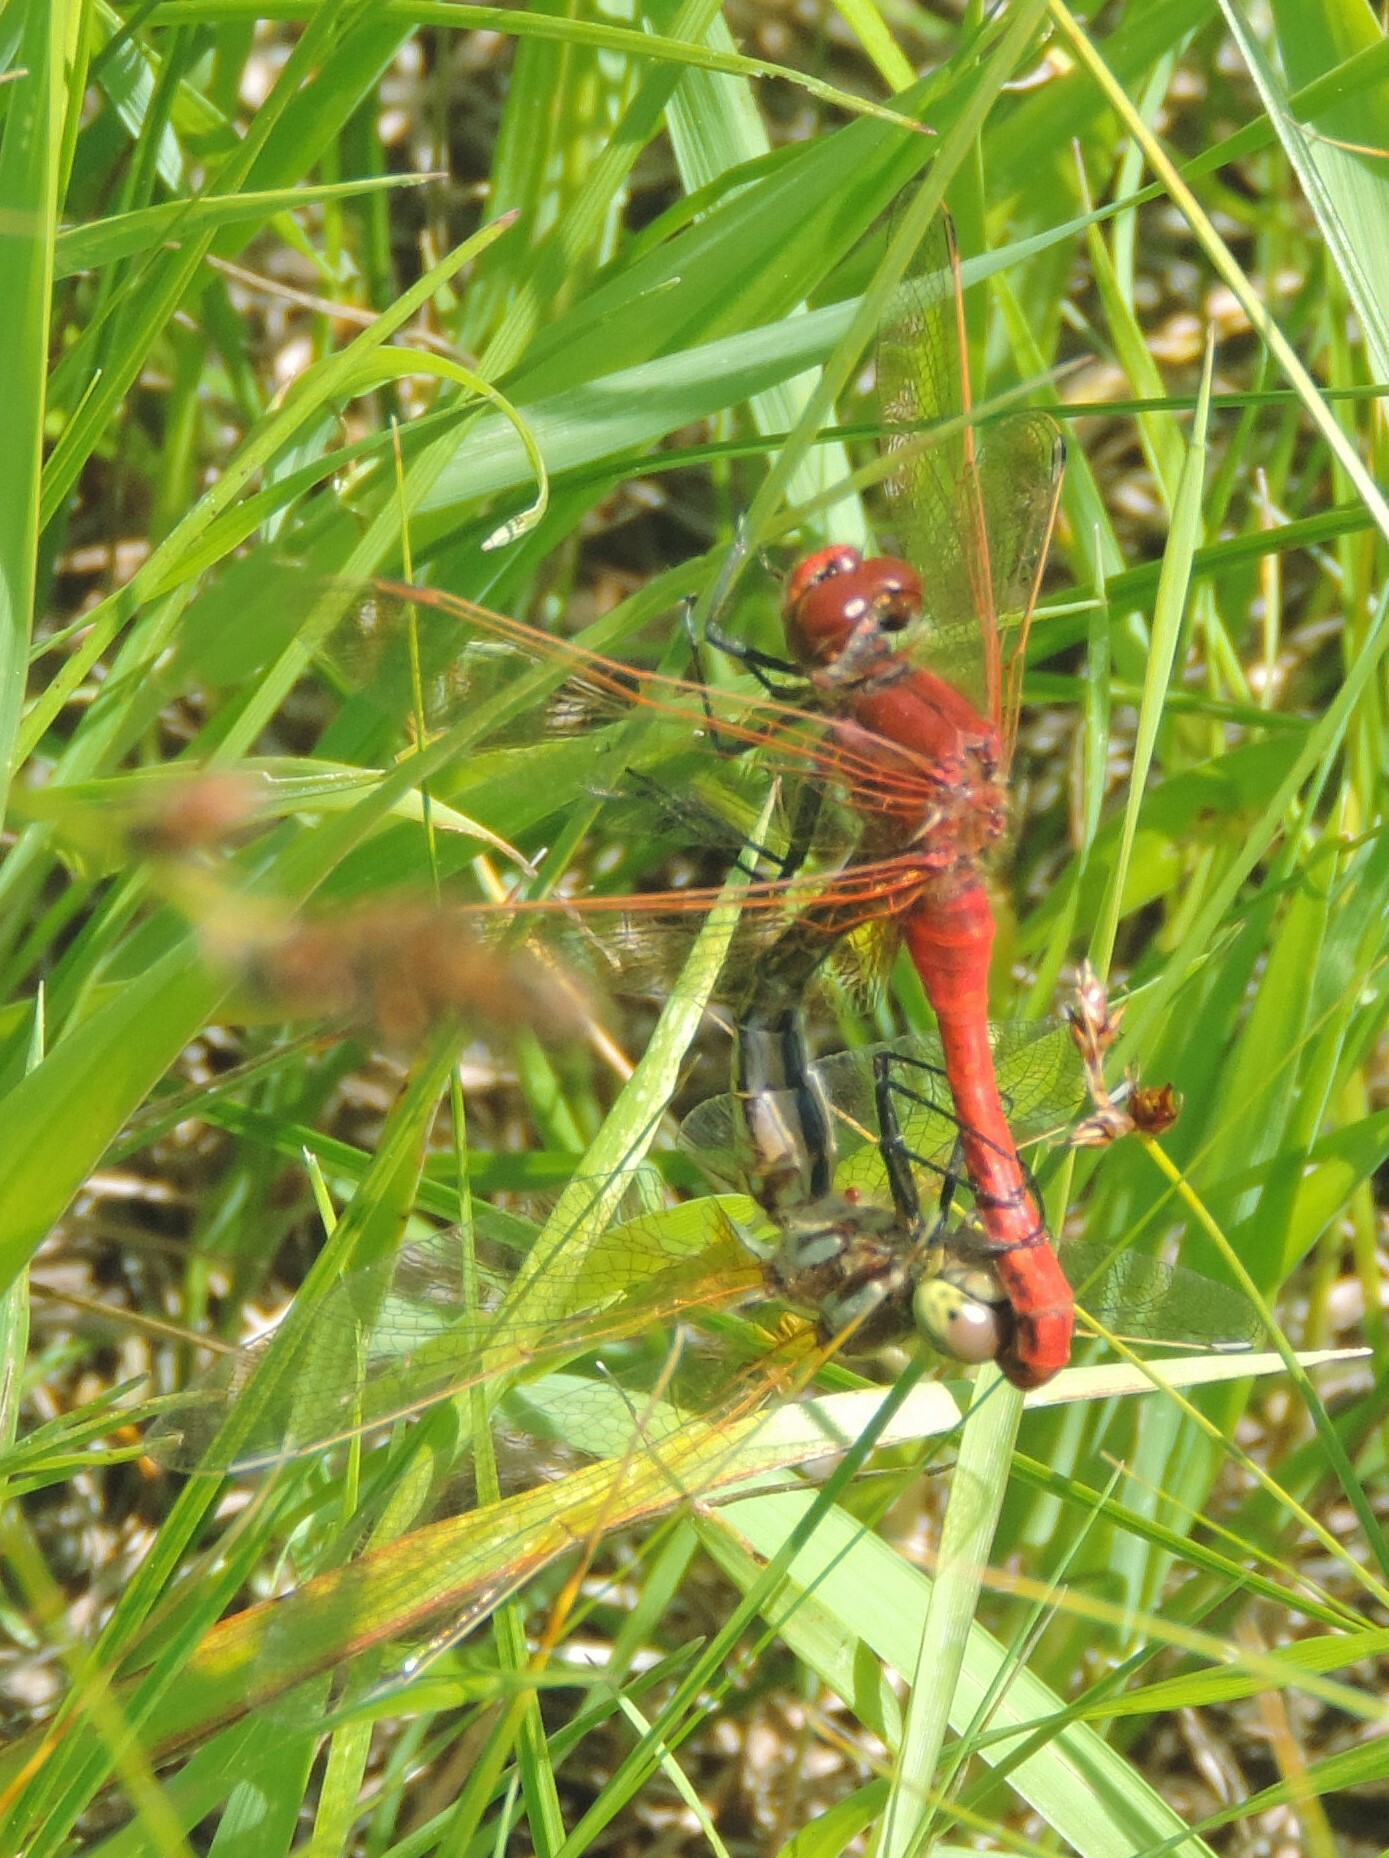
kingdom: Animalia
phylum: Arthropoda
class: Insecta
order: Odonata
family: Libellulidae
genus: Sympetrum
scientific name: Sympetrum madidum
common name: Red-veined meadowhawk
